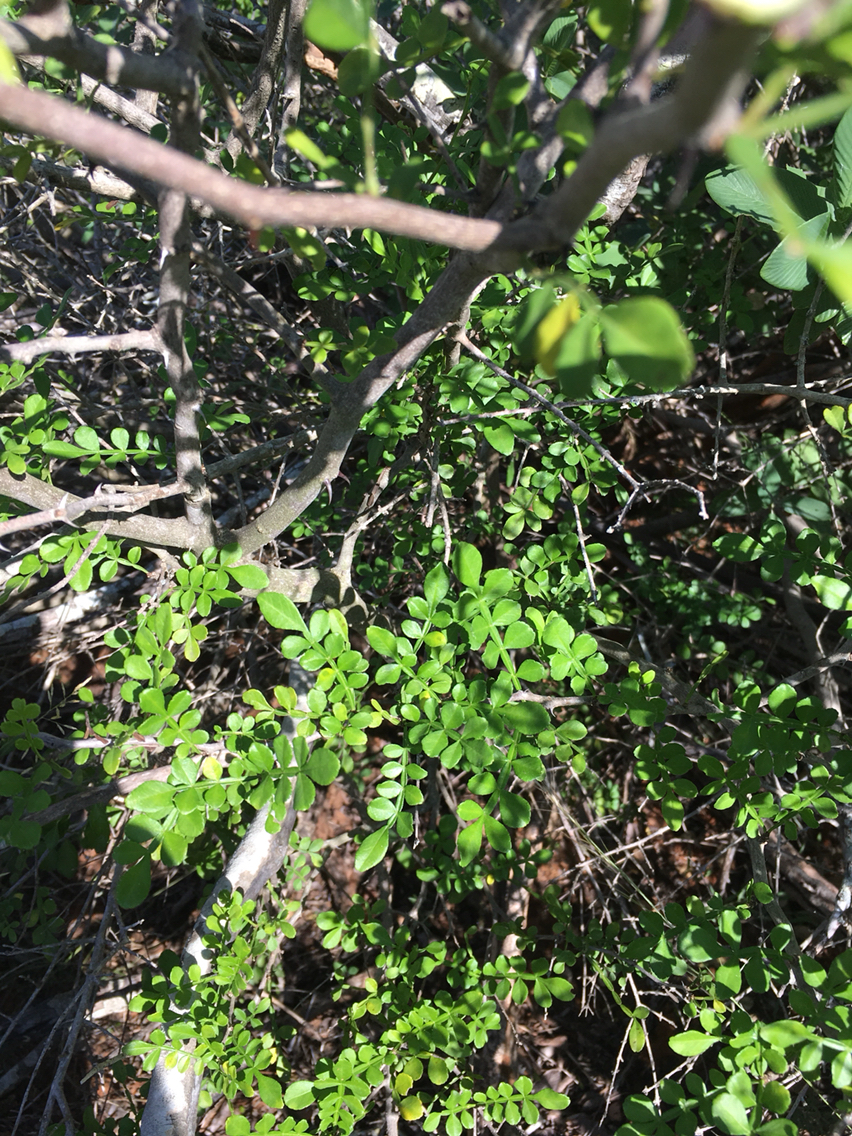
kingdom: Plantae
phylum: Tracheophyta
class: Magnoliopsida
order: Sapindales
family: Rutaceae
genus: Zanthoxylum
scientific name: Zanthoxylum fagara
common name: Lime prickly-ash
